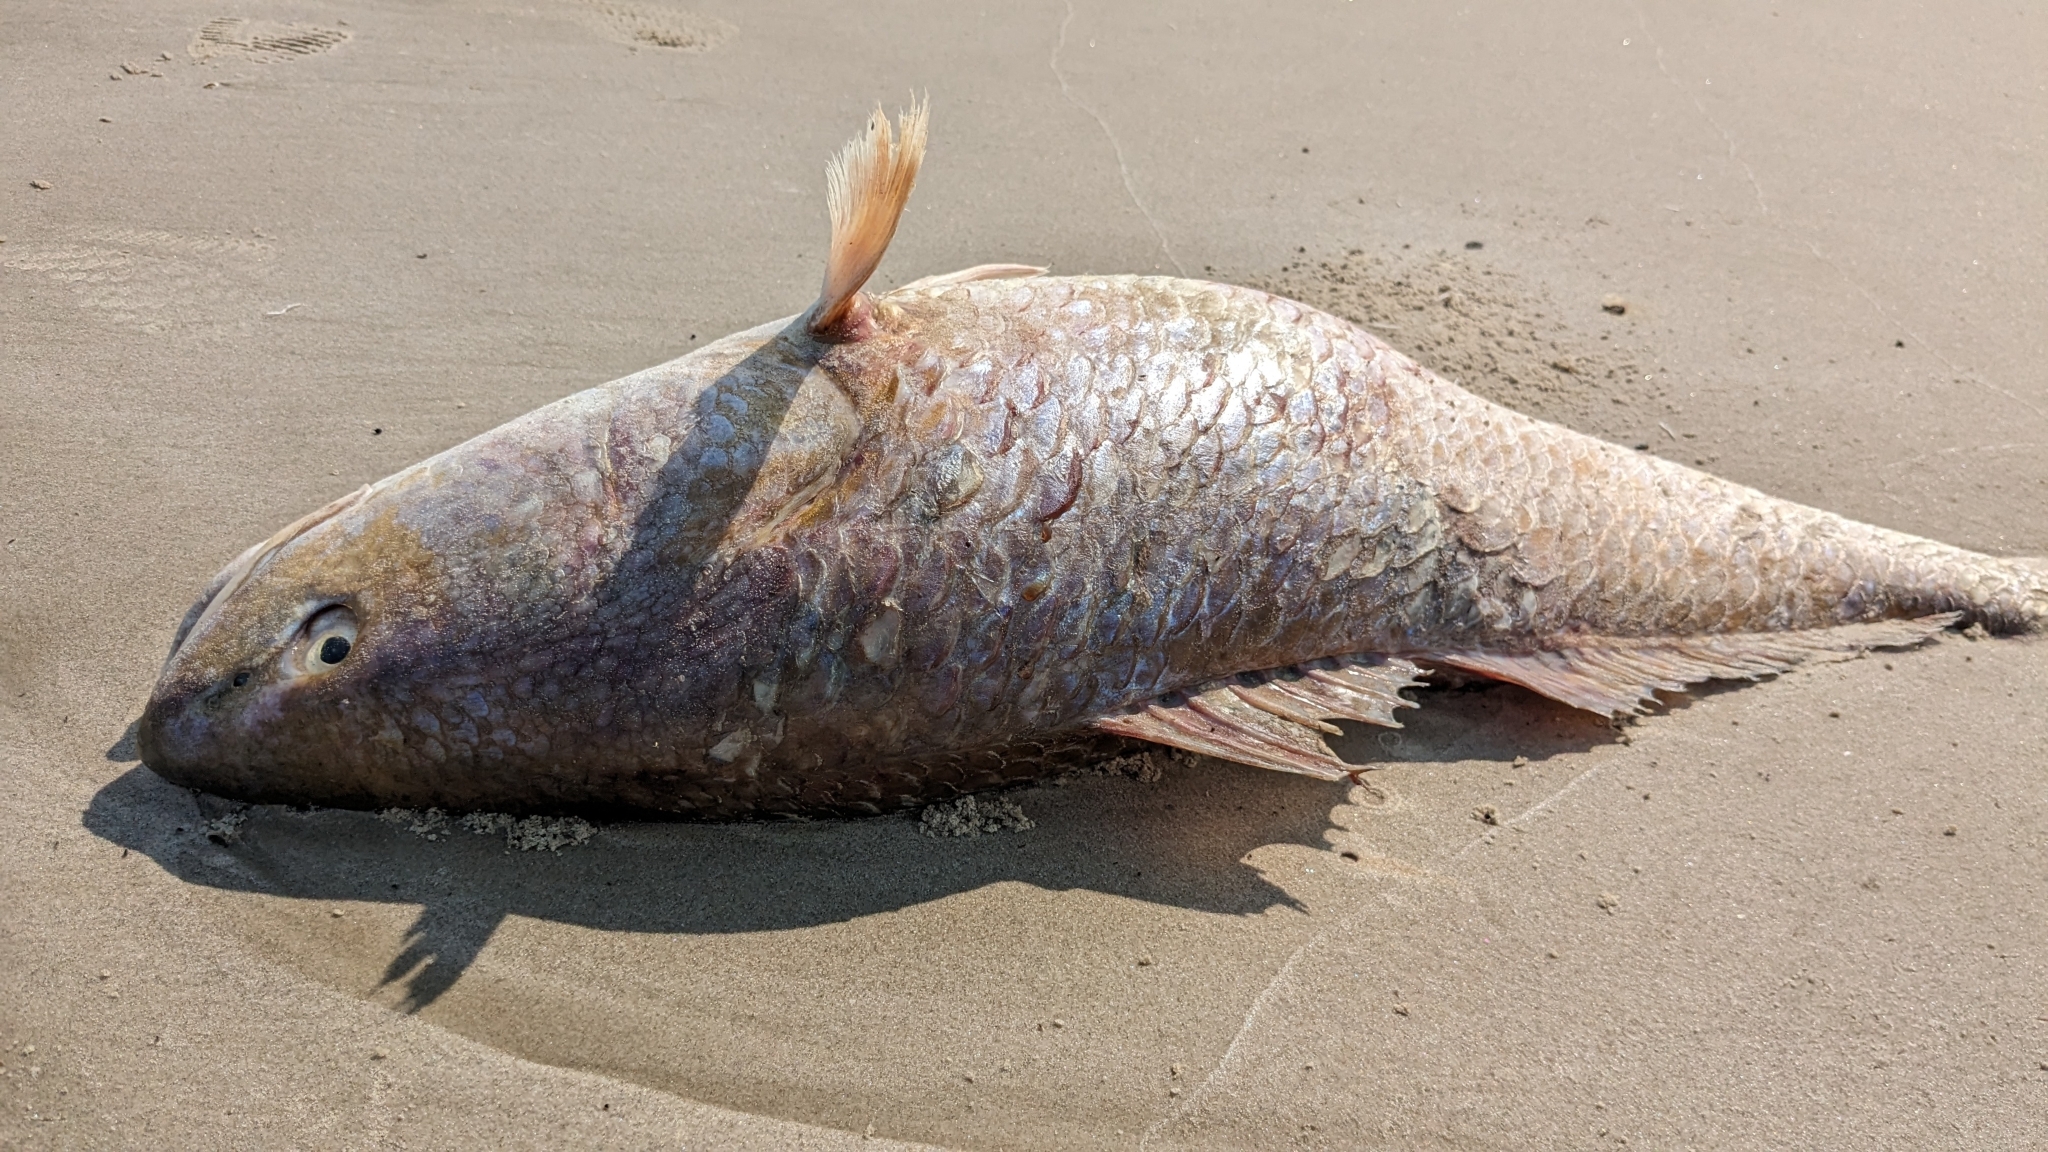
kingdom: Animalia
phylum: Chordata
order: Perciformes
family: Sciaenidae
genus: Sciaenops
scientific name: Sciaenops ocellatus
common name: Red drum
